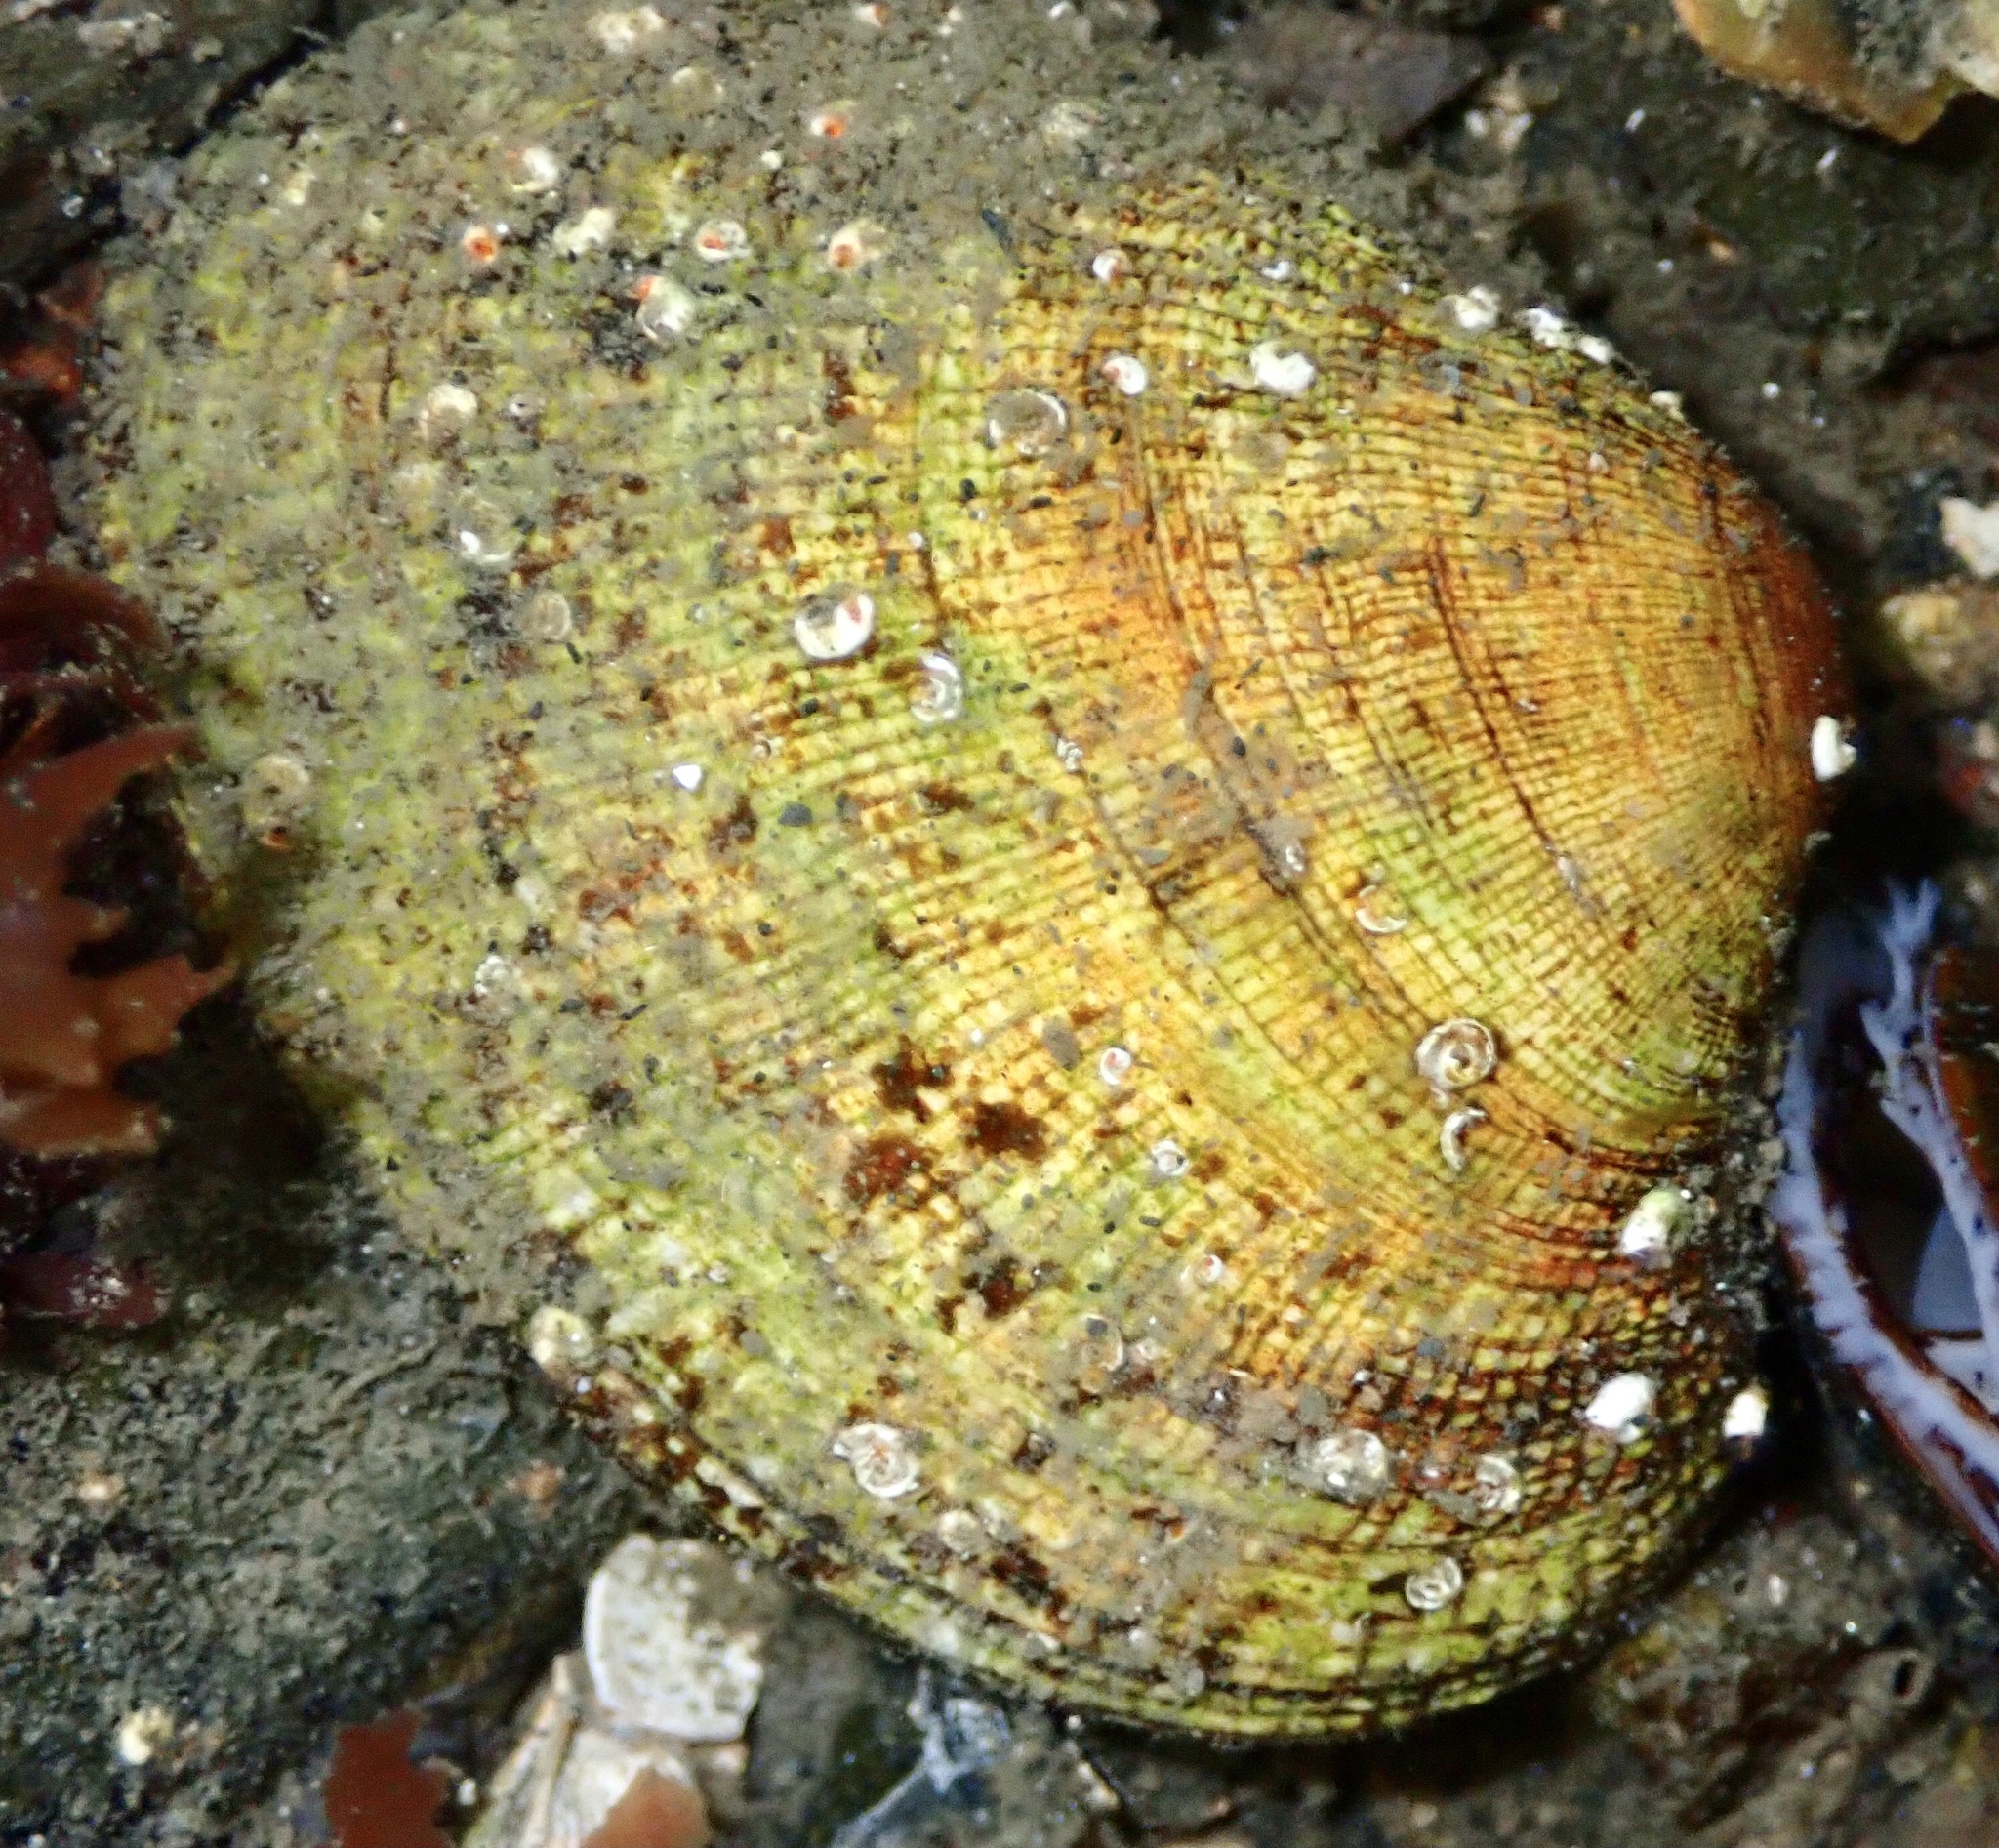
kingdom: Animalia
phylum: Mollusca
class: Bivalvia
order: Venerida
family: Veneridae
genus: Ruditapes
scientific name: Ruditapes philippinarum
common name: Manila clam
